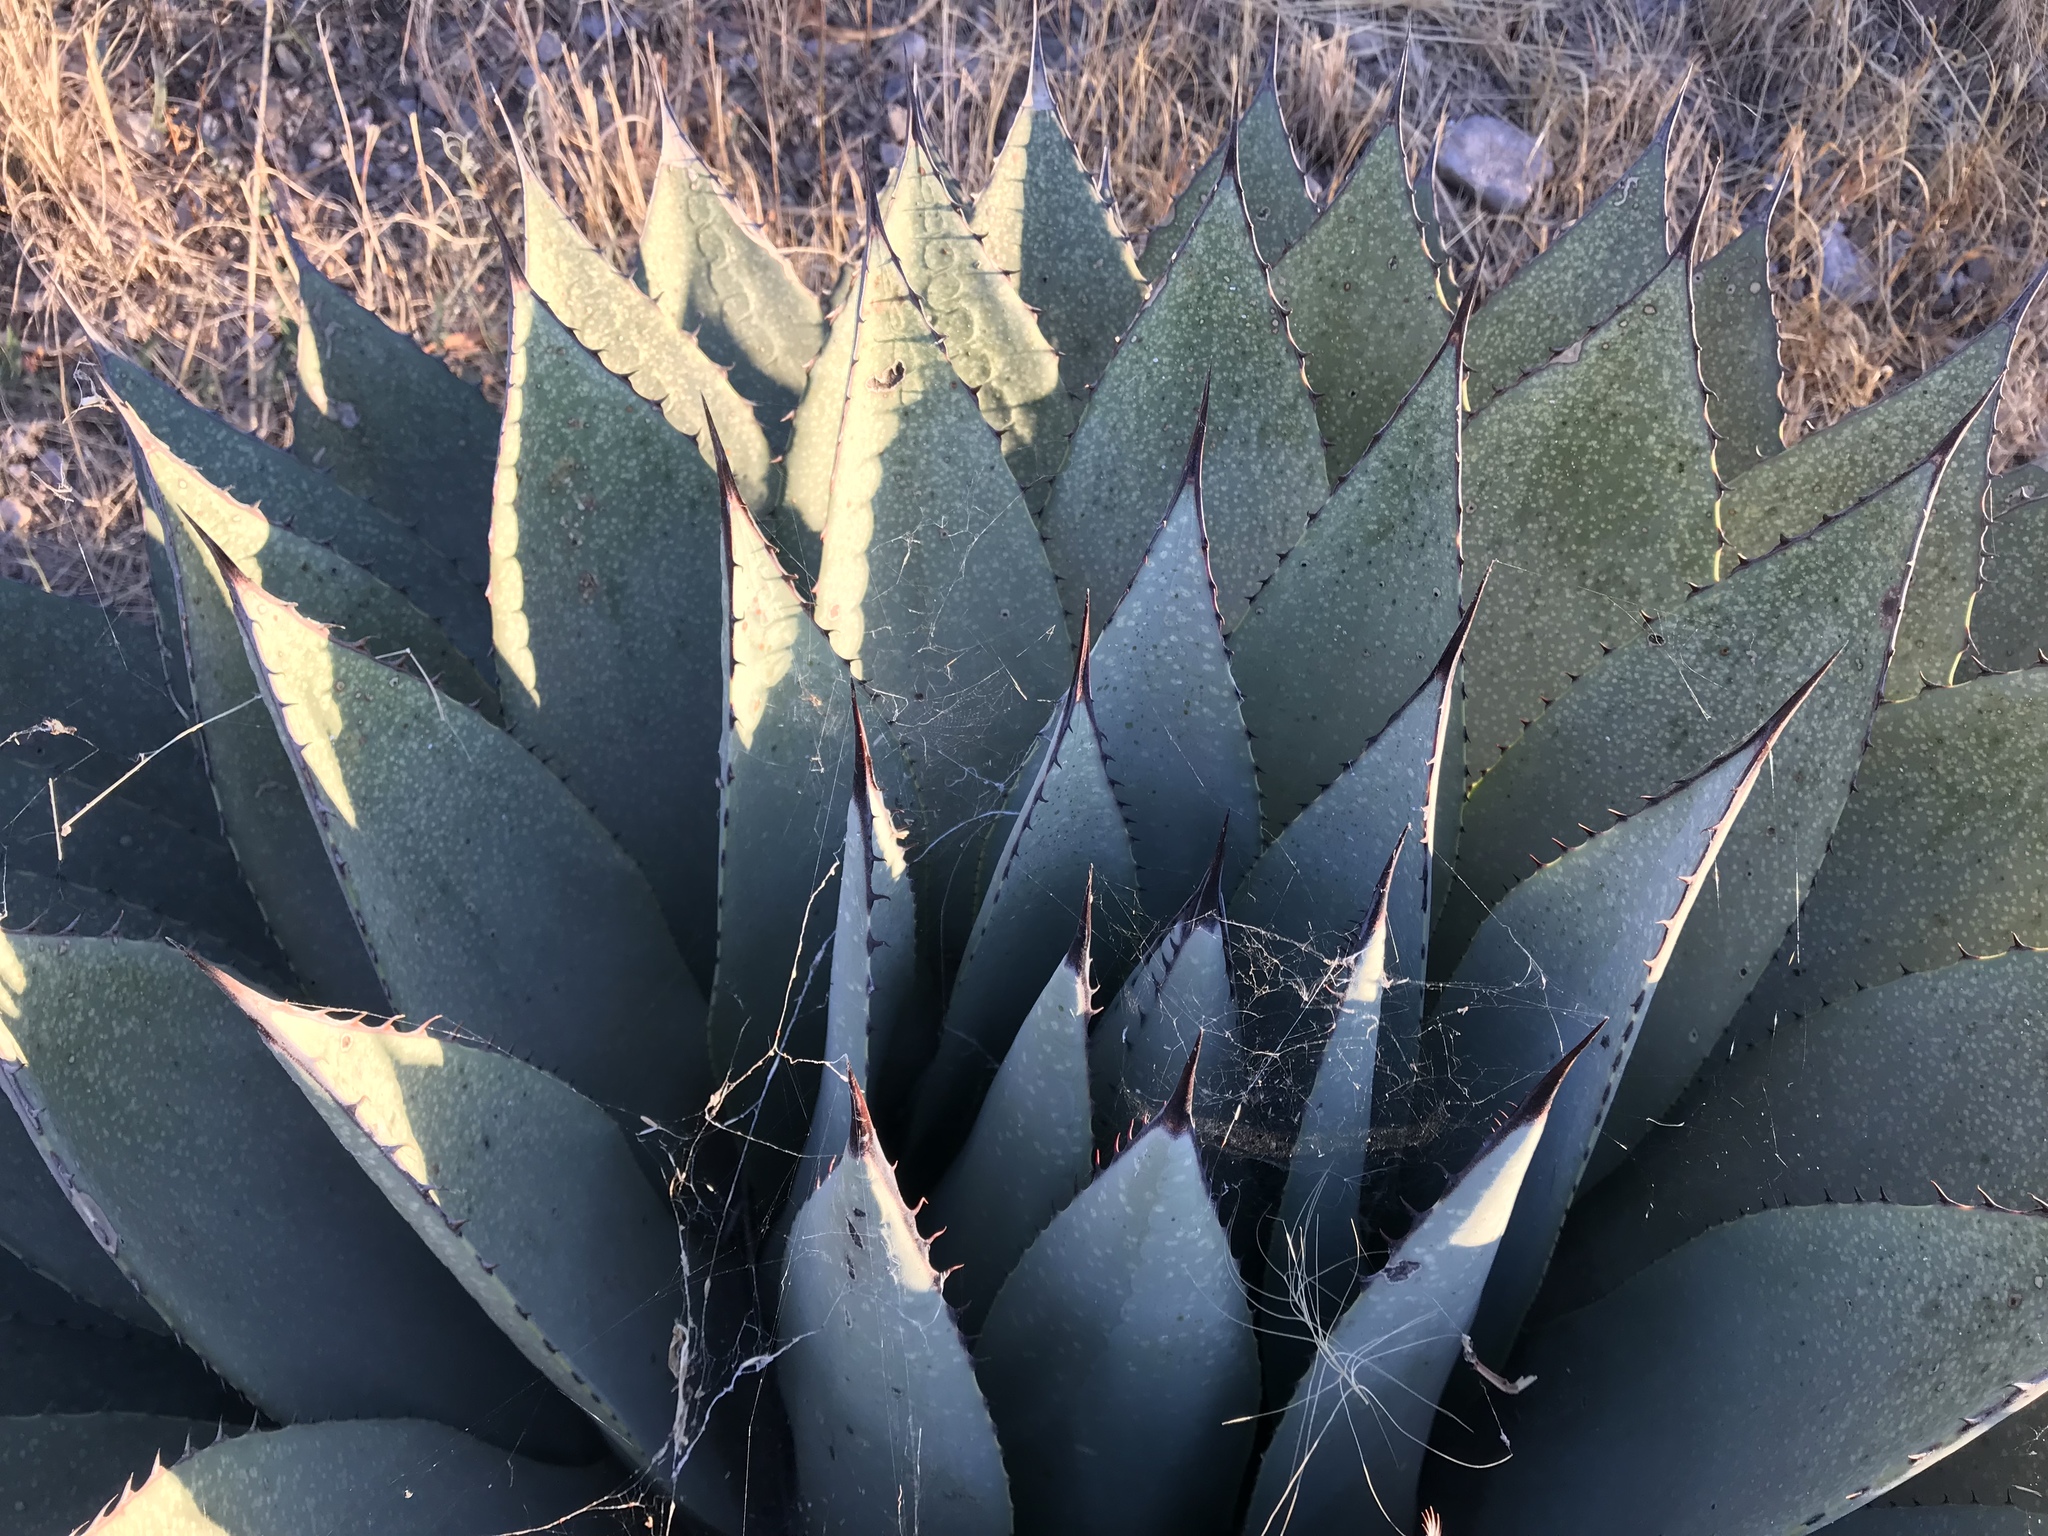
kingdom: Plantae
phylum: Tracheophyta
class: Liliopsida
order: Asparagales
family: Asparagaceae
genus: Agave
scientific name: Agave parryi
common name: Parry's agave
